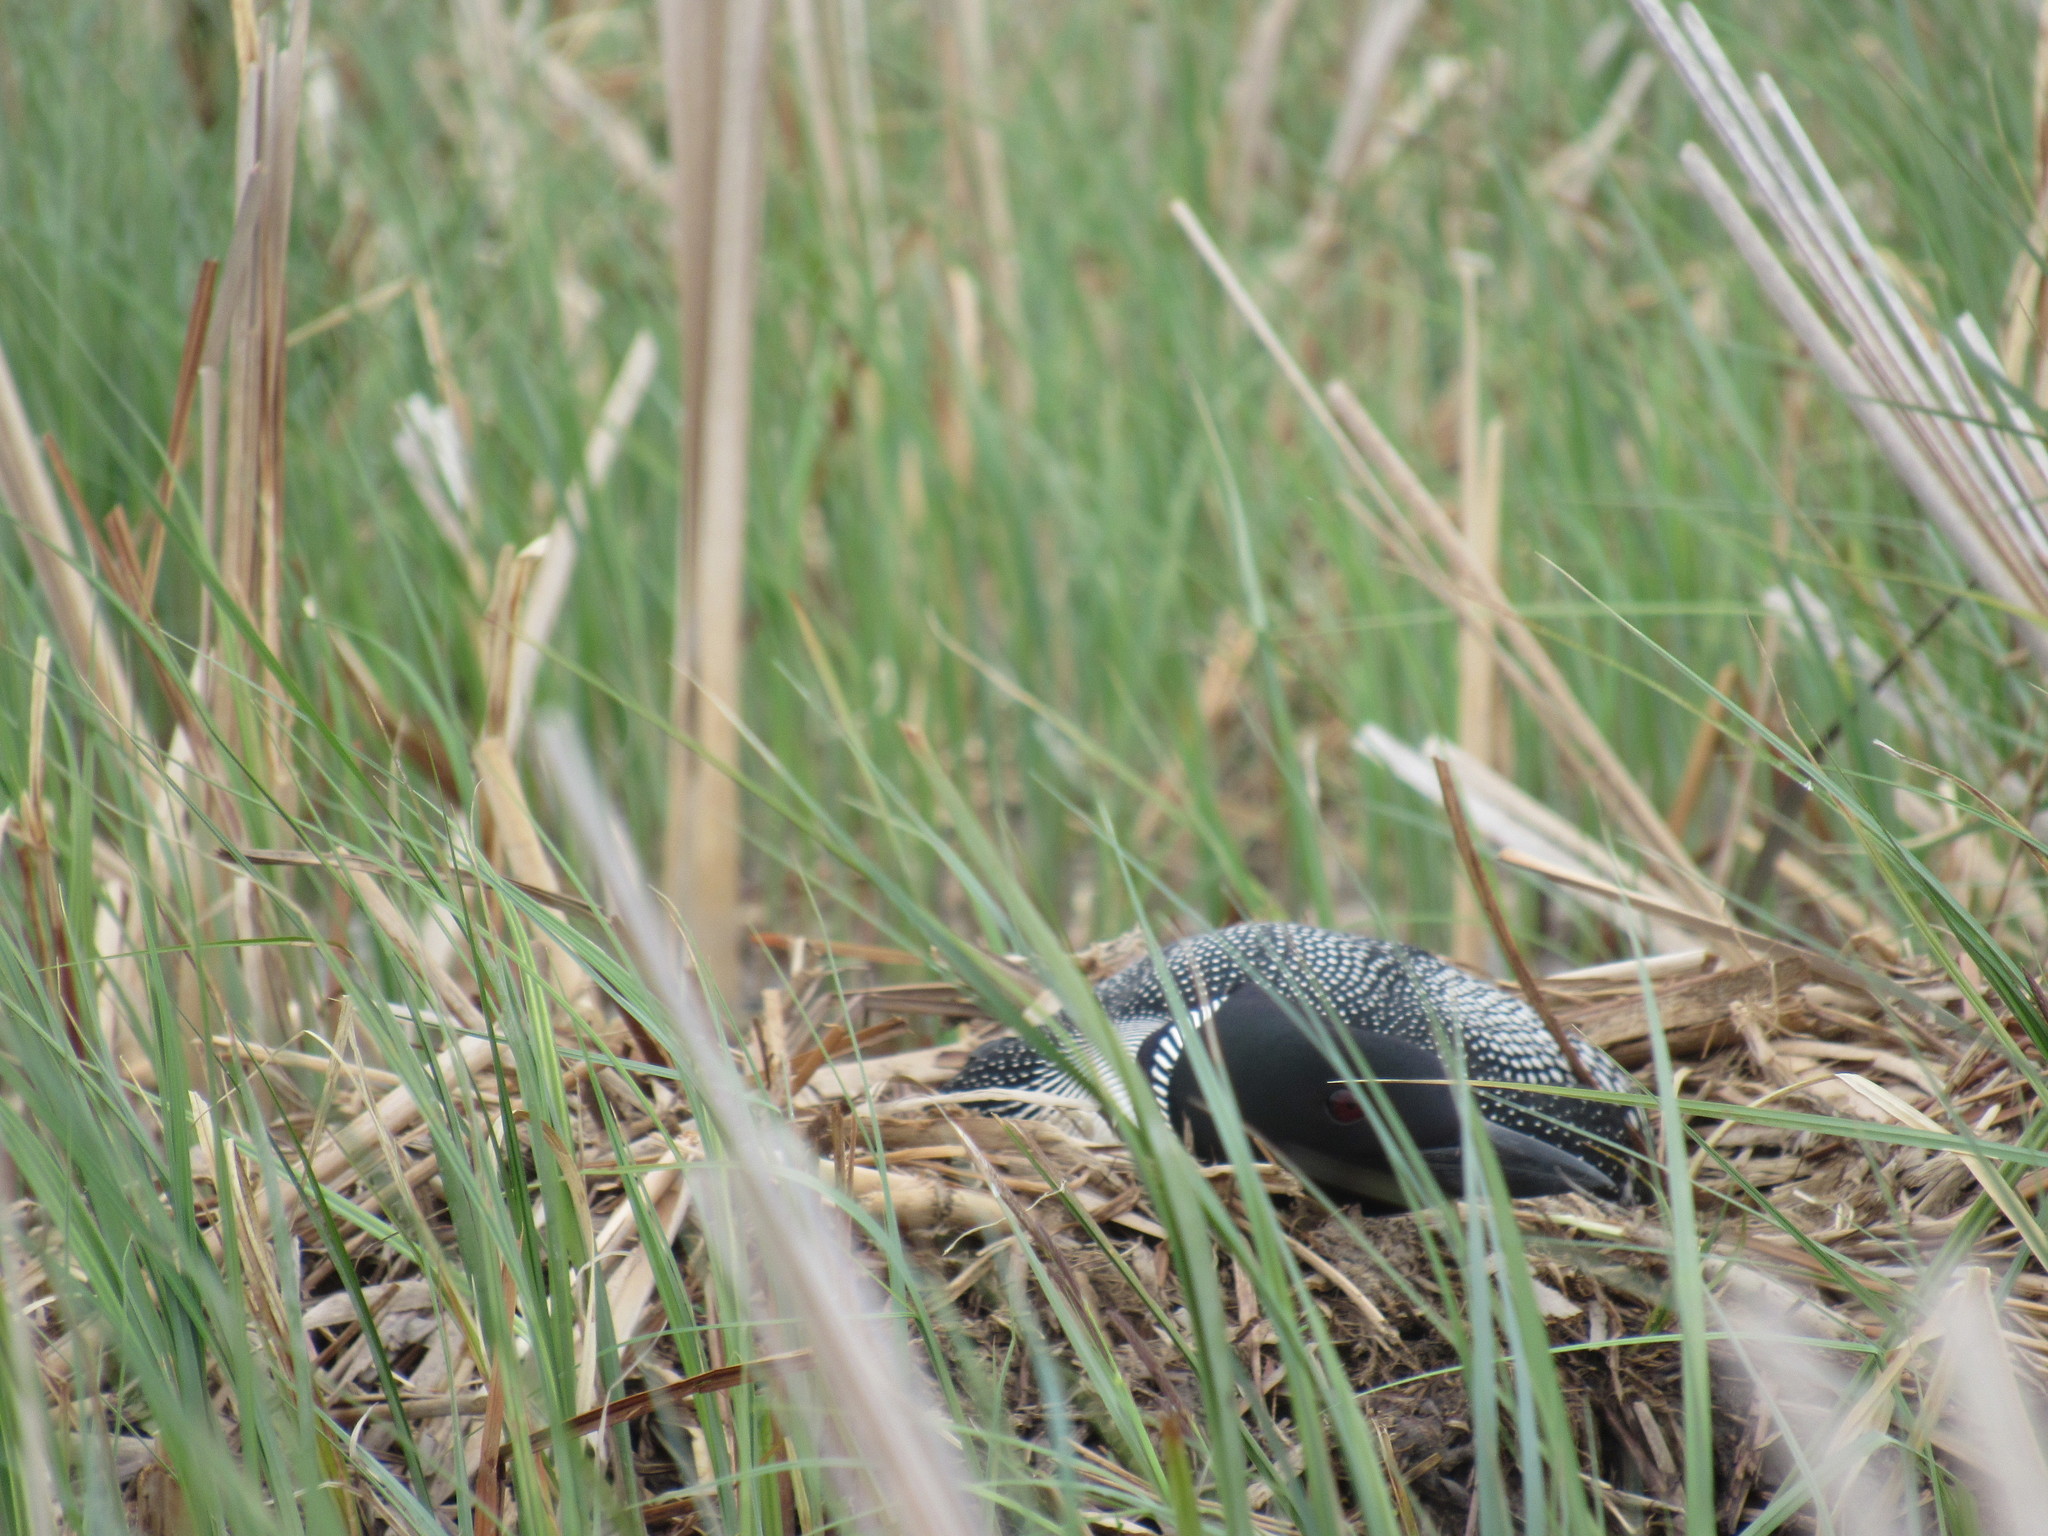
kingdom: Animalia
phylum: Chordata
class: Aves
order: Gaviiformes
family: Gaviidae
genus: Gavia
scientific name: Gavia immer
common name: Common loon
